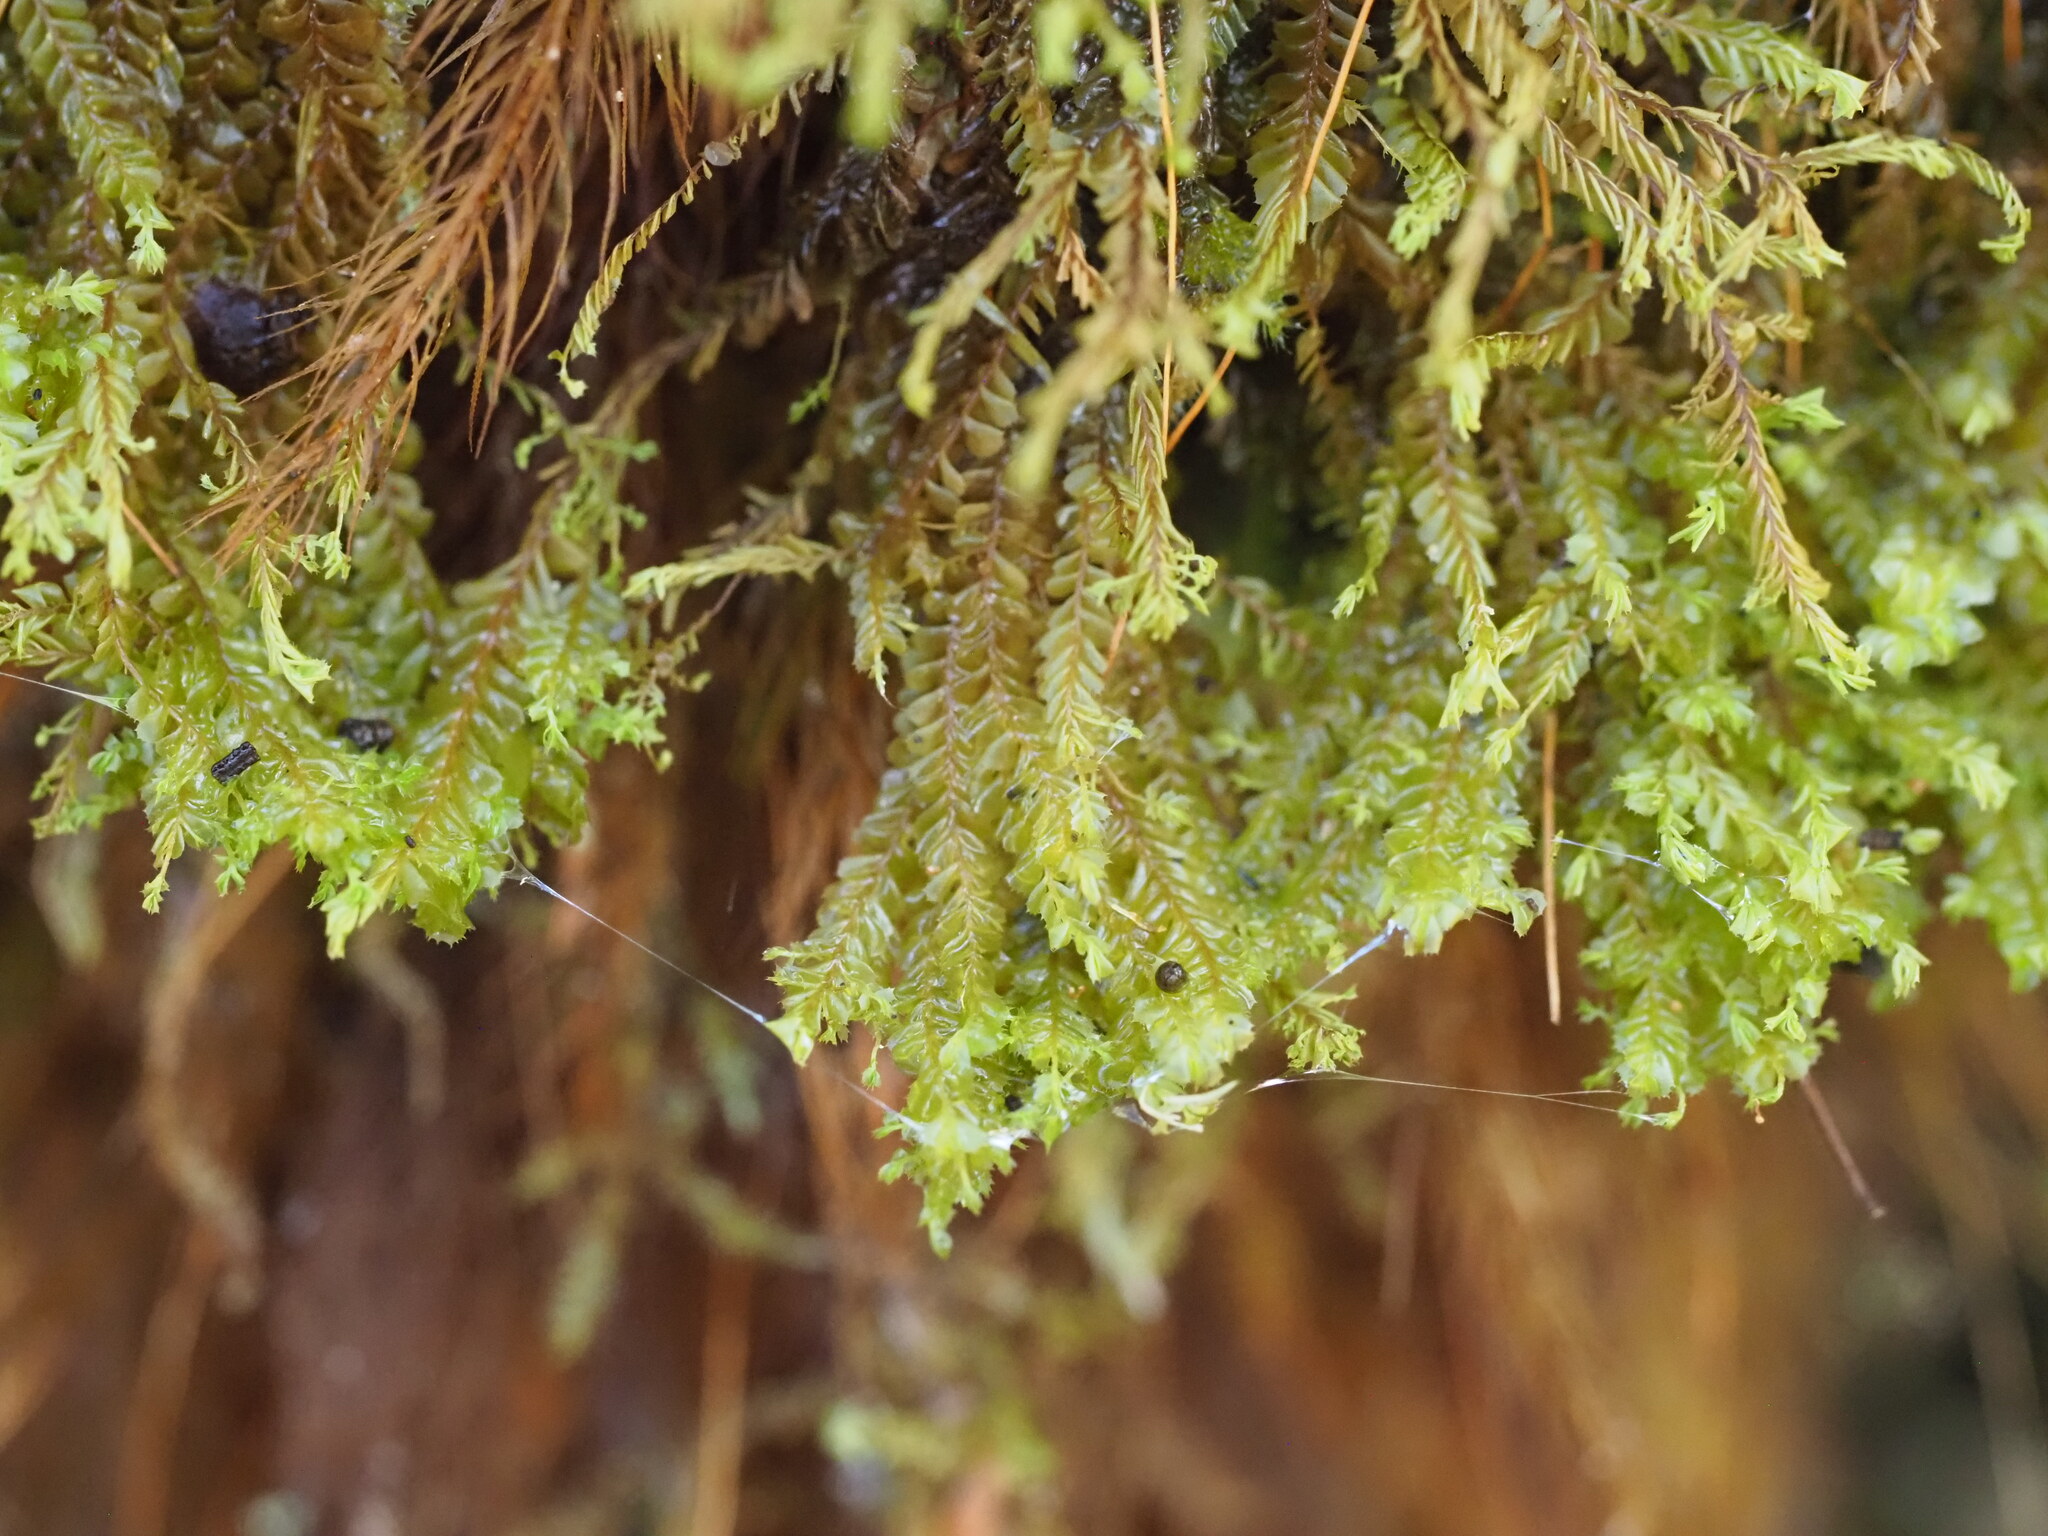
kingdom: Plantae
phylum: Marchantiophyta
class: Jungermanniopsida
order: Jungermanniales
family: Plagiochilaceae
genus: Plagiochila
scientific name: Plagiochila gaudichaudii
